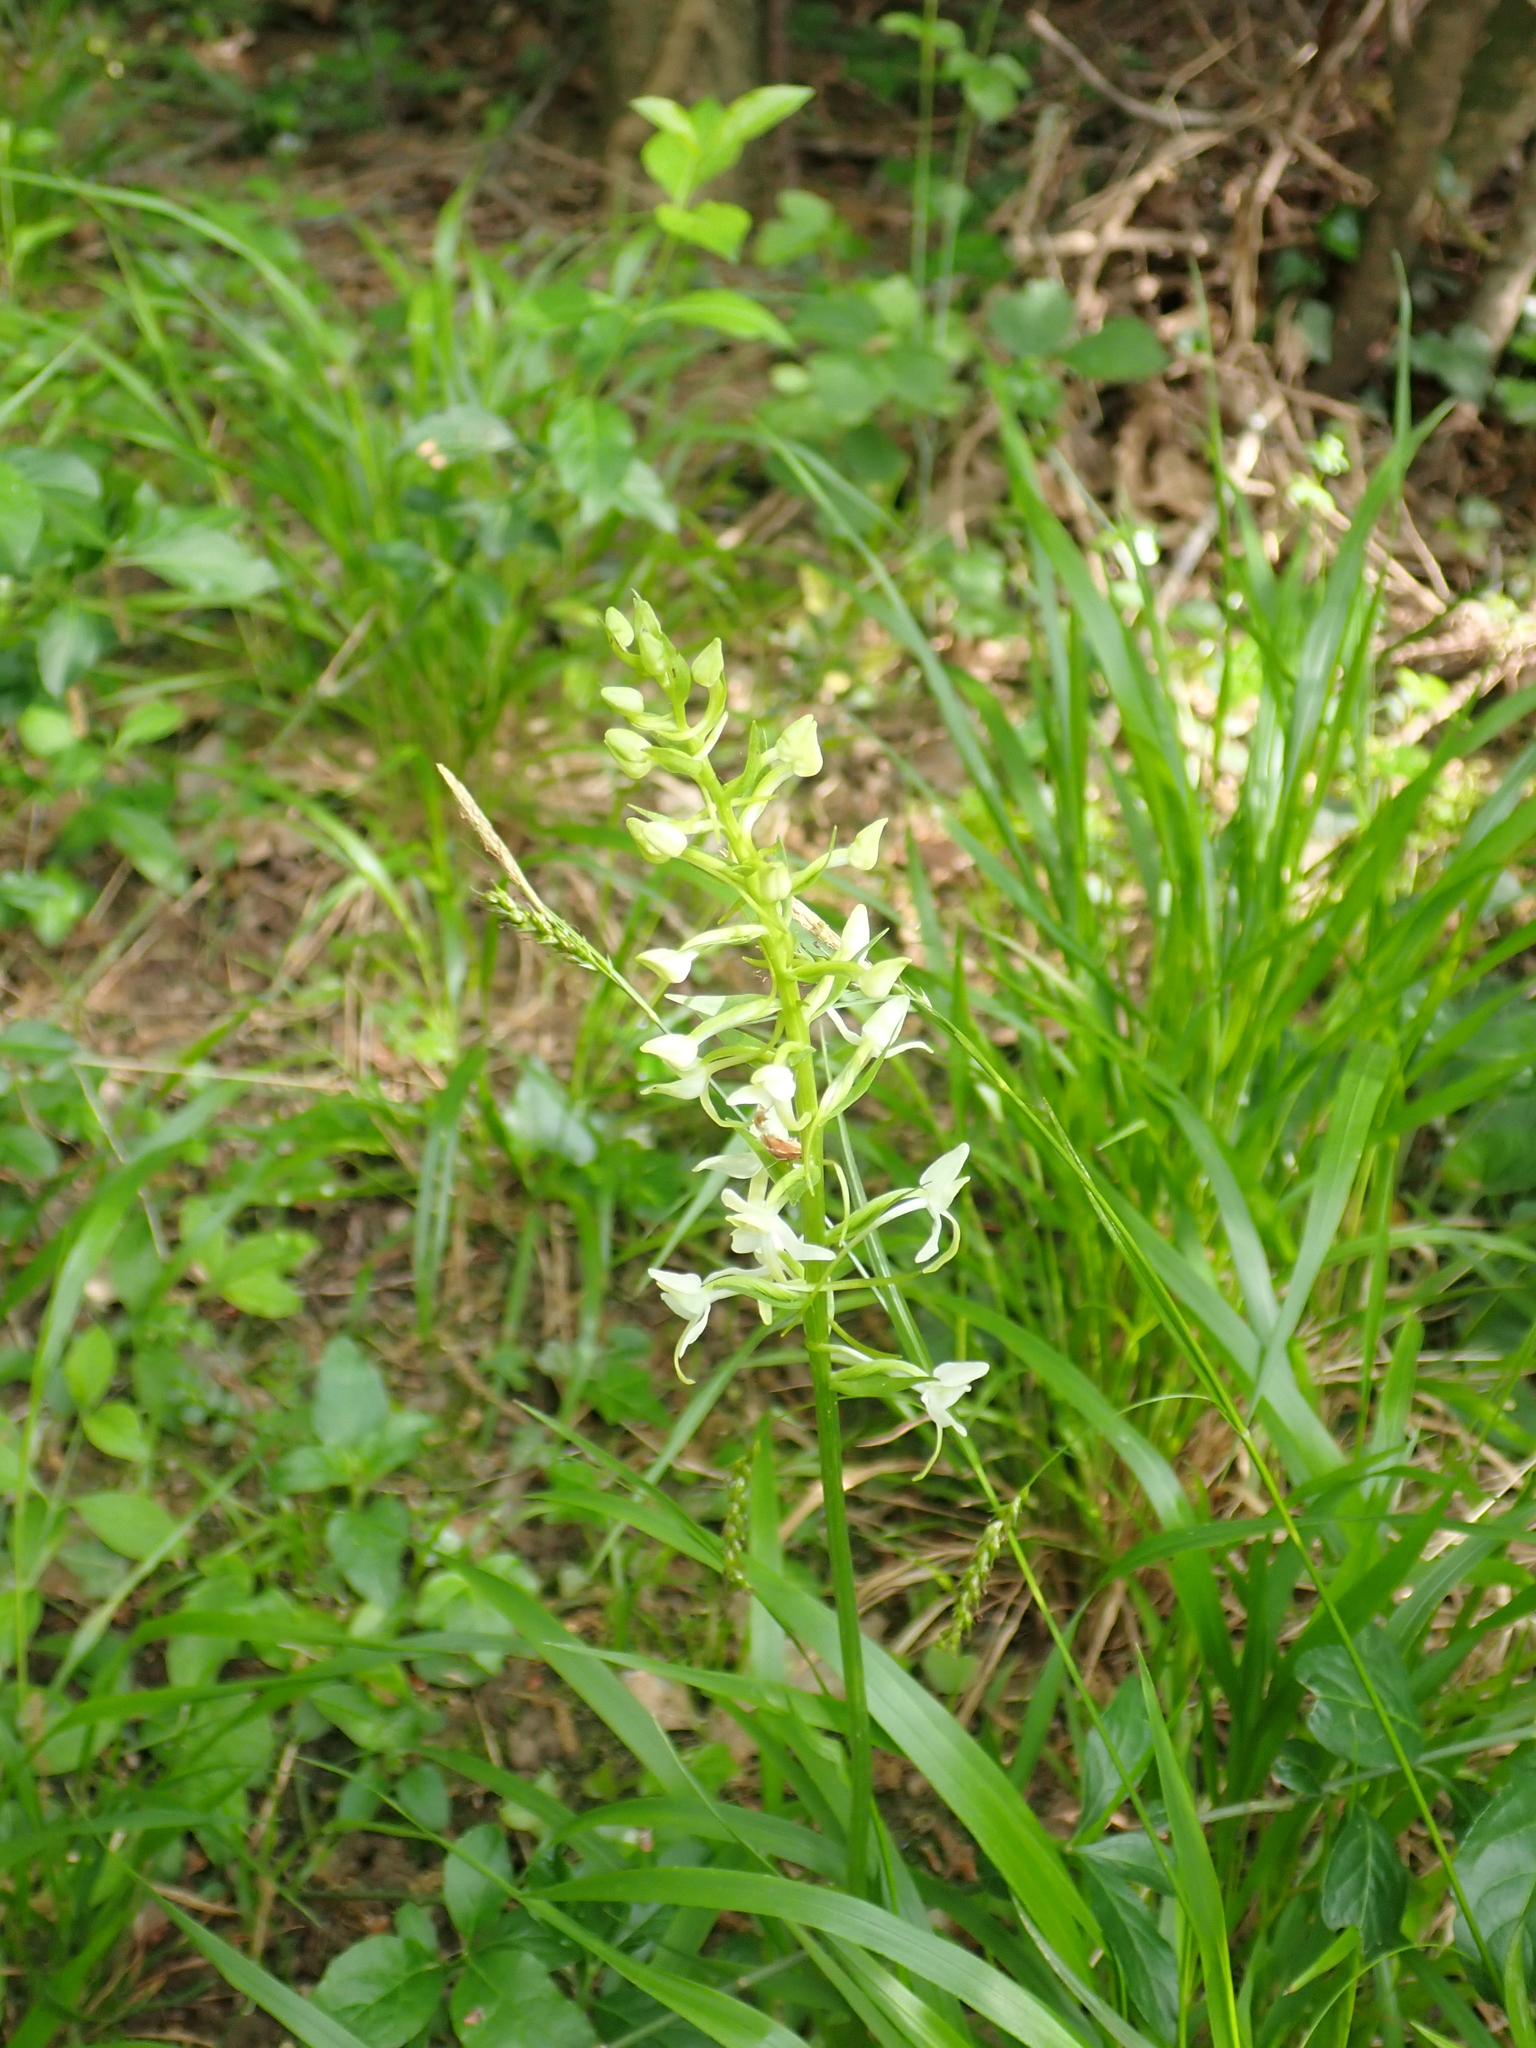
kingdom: Plantae
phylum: Tracheophyta
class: Liliopsida
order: Asparagales
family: Orchidaceae
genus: Platanthera
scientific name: Platanthera bifolia
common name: Lesser butterfly-orchid
